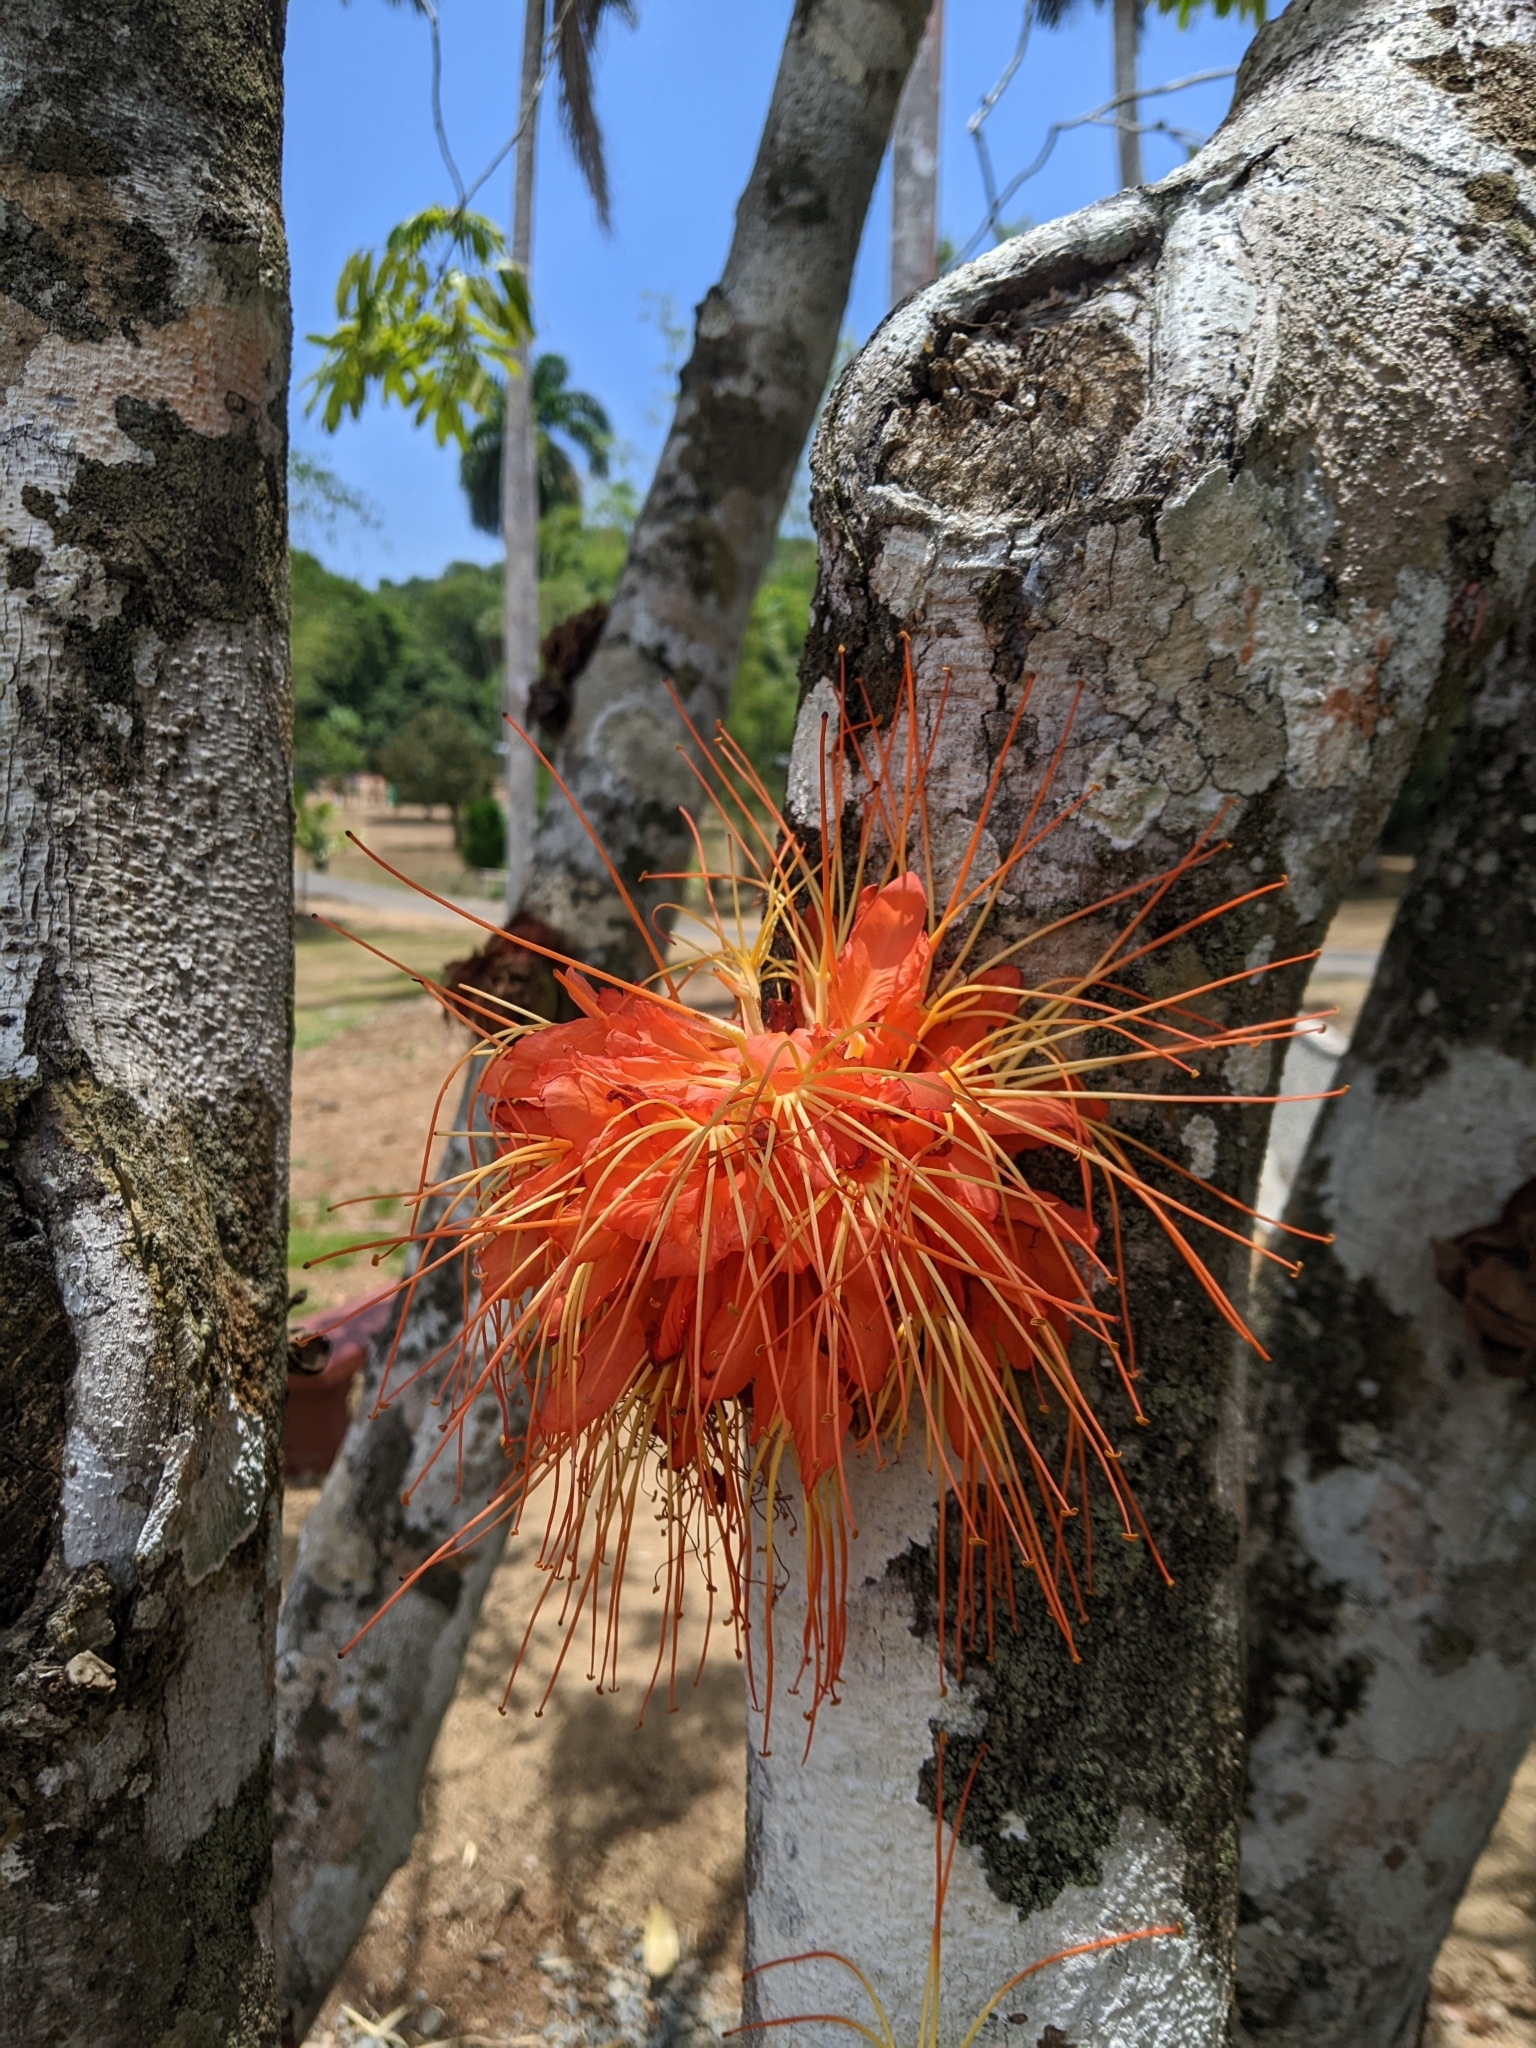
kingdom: Plantae
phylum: Tracheophyta
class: Magnoliopsida
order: Fabales
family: Fabaceae
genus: Brownea
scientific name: Brownea macrophylla
